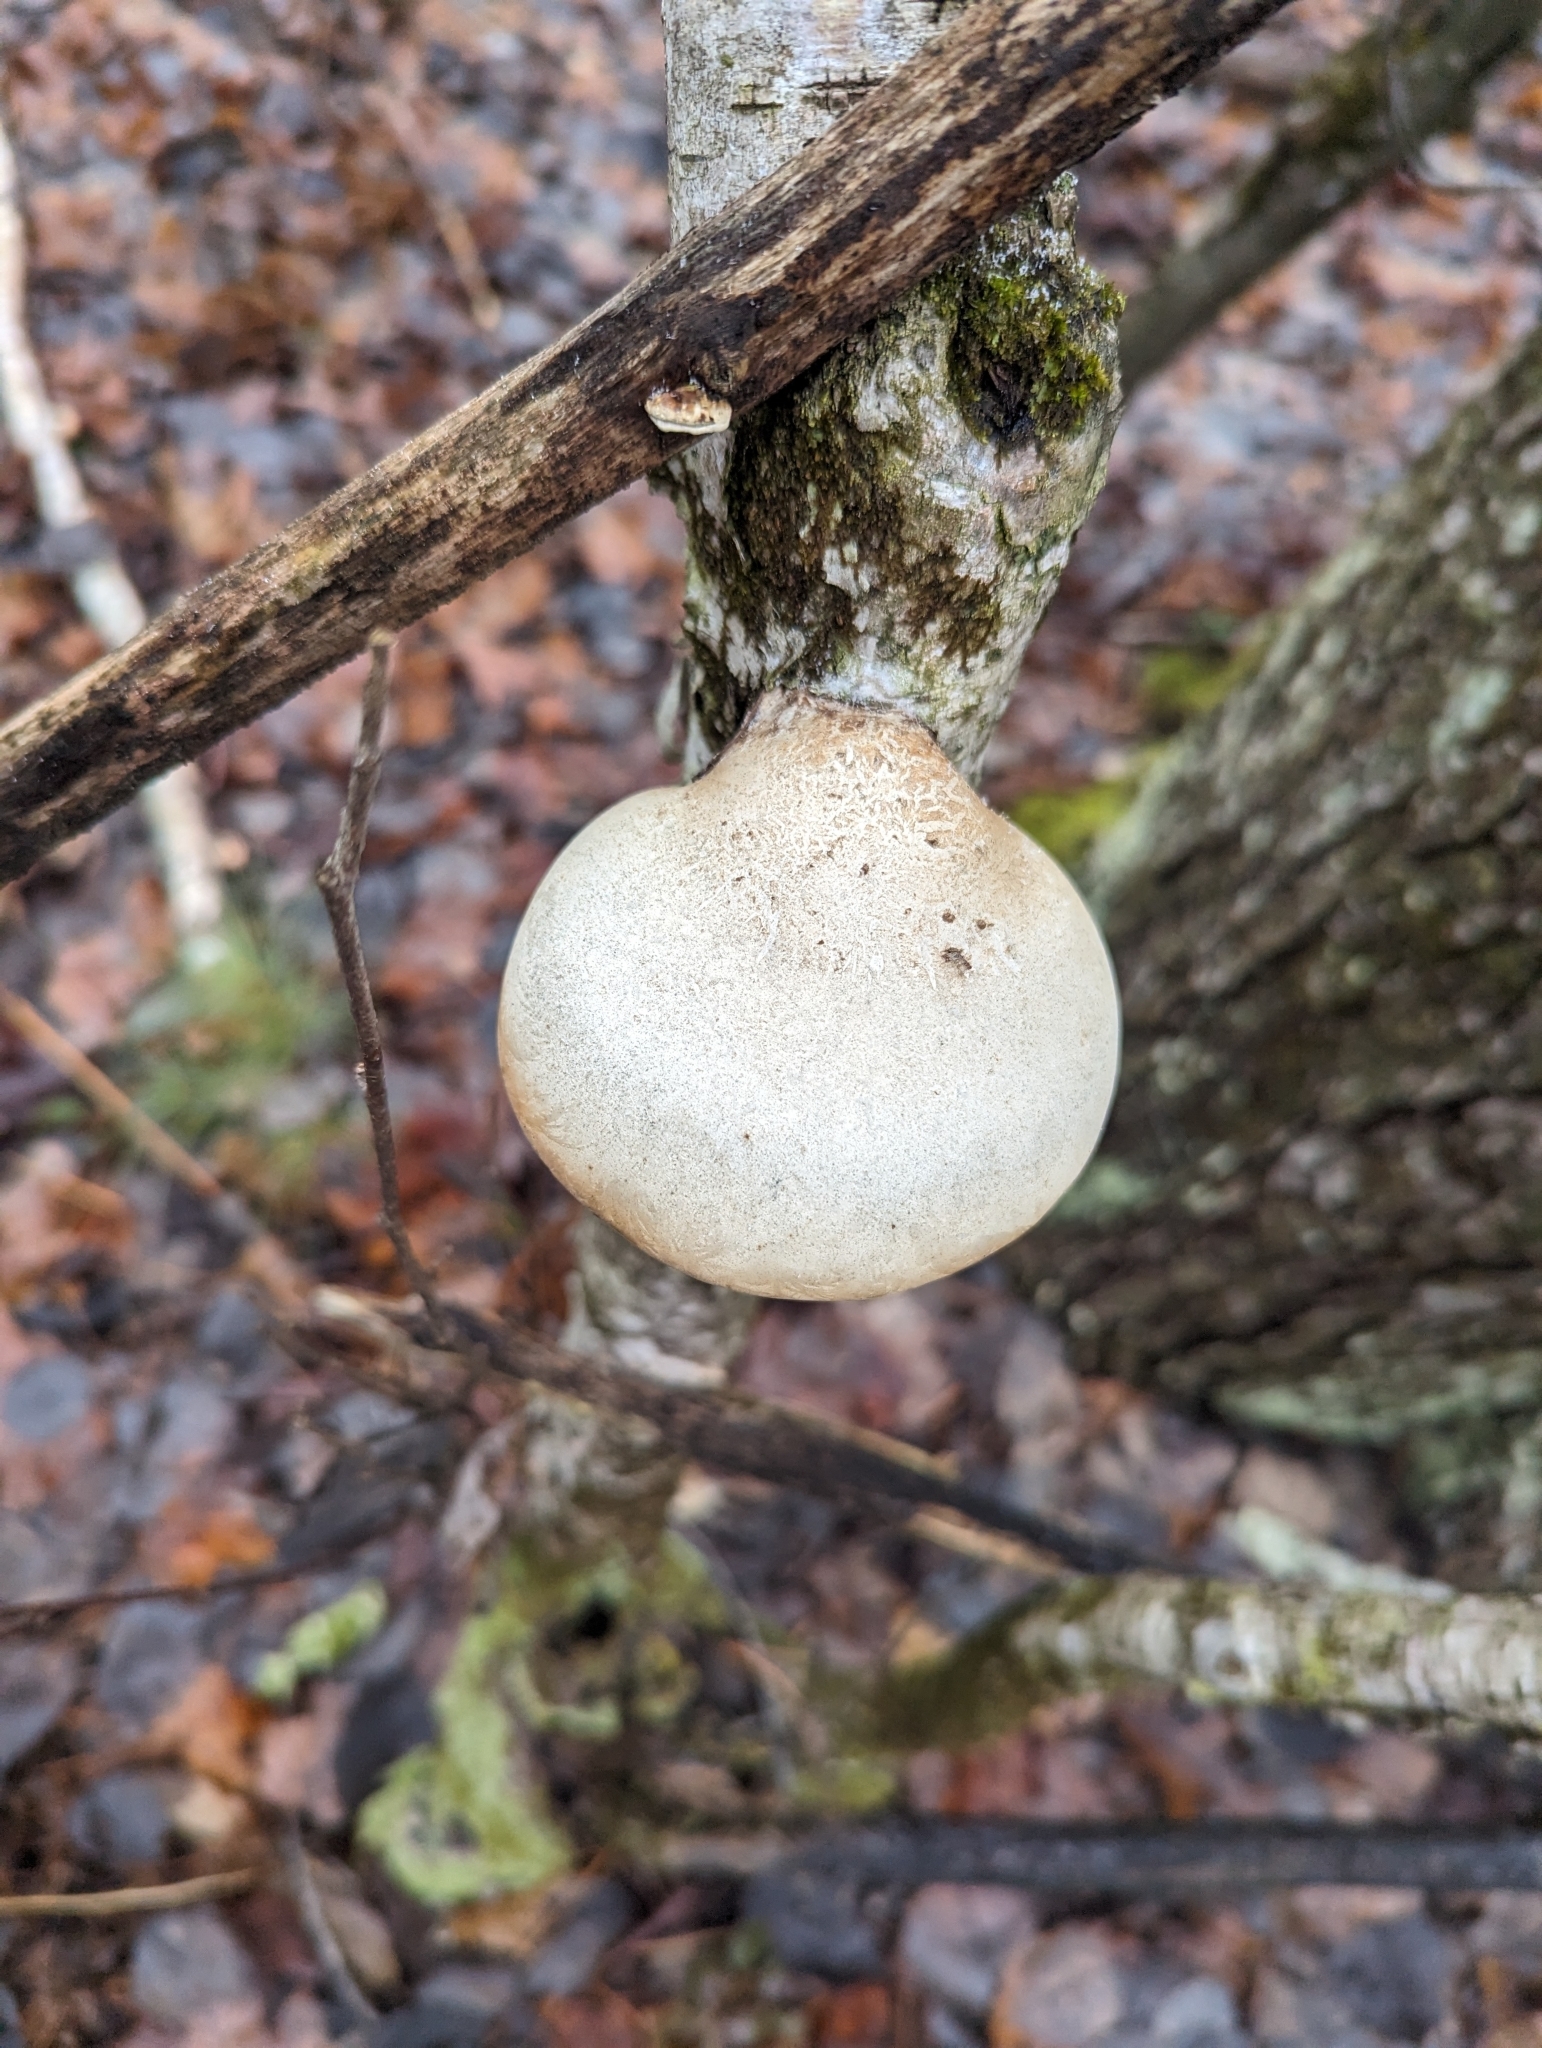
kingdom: Fungi
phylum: Basidiomycota
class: Agaricomycetes
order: Polyporales
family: Fomitopsidaceae
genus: Fomitopsis
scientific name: Fomitopsis betulina
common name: Birch polypore
